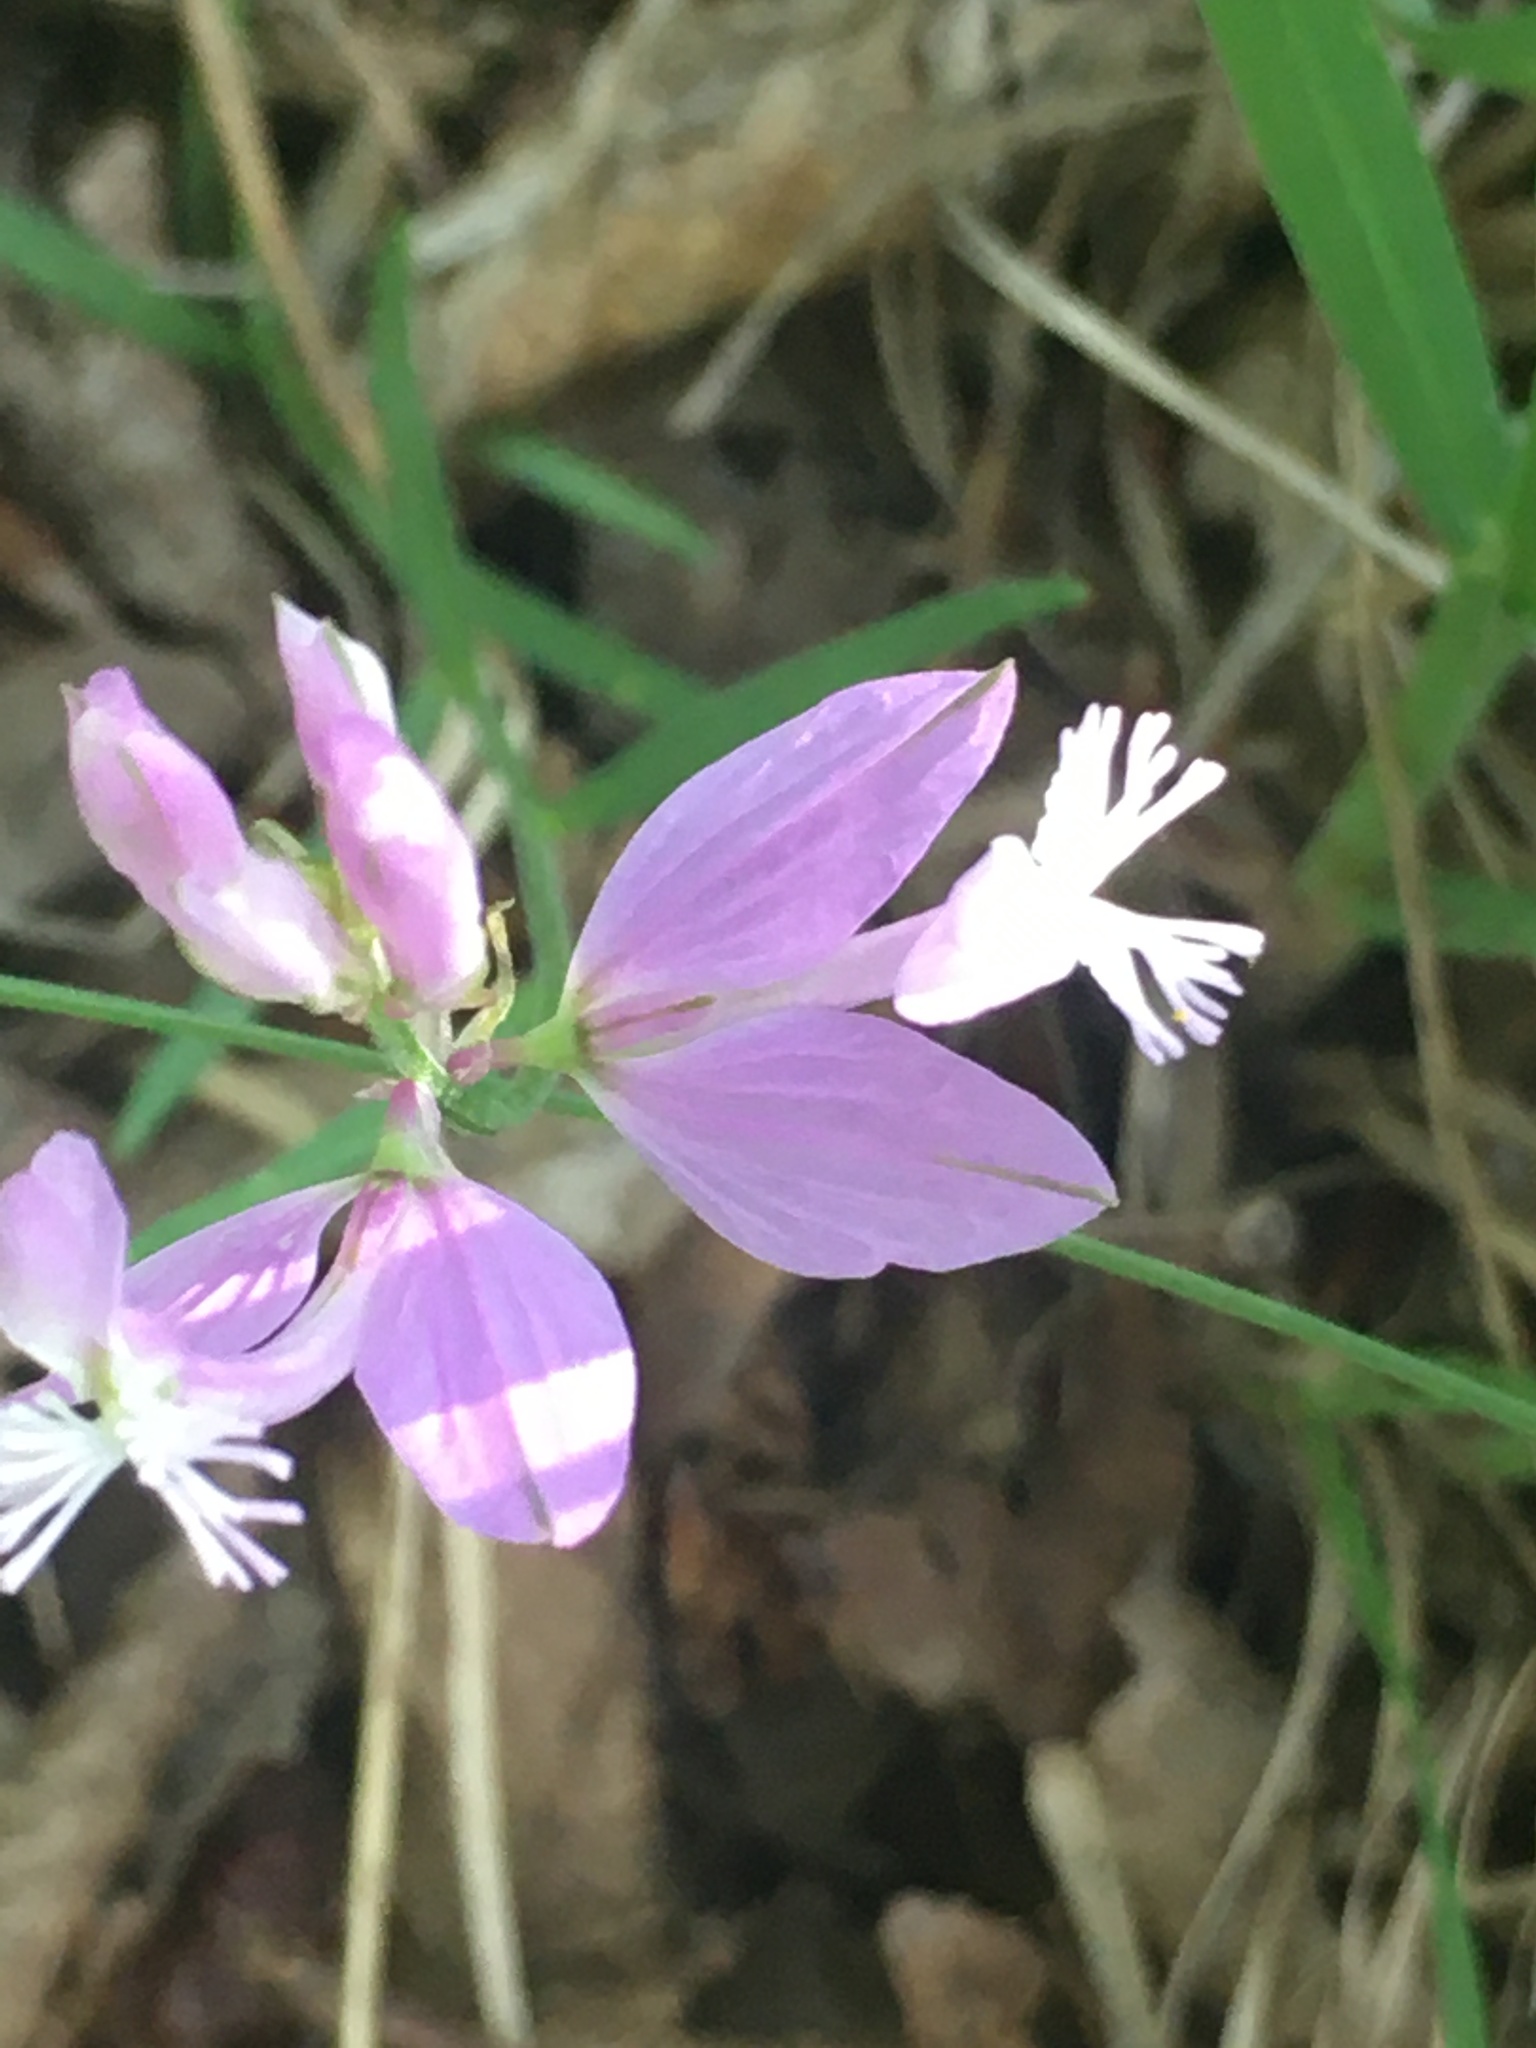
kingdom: Plantae
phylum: Tracheophyta
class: Magnoliopsida
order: Fabales
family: Polygalaceae
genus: Polygala
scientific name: Polygala major
